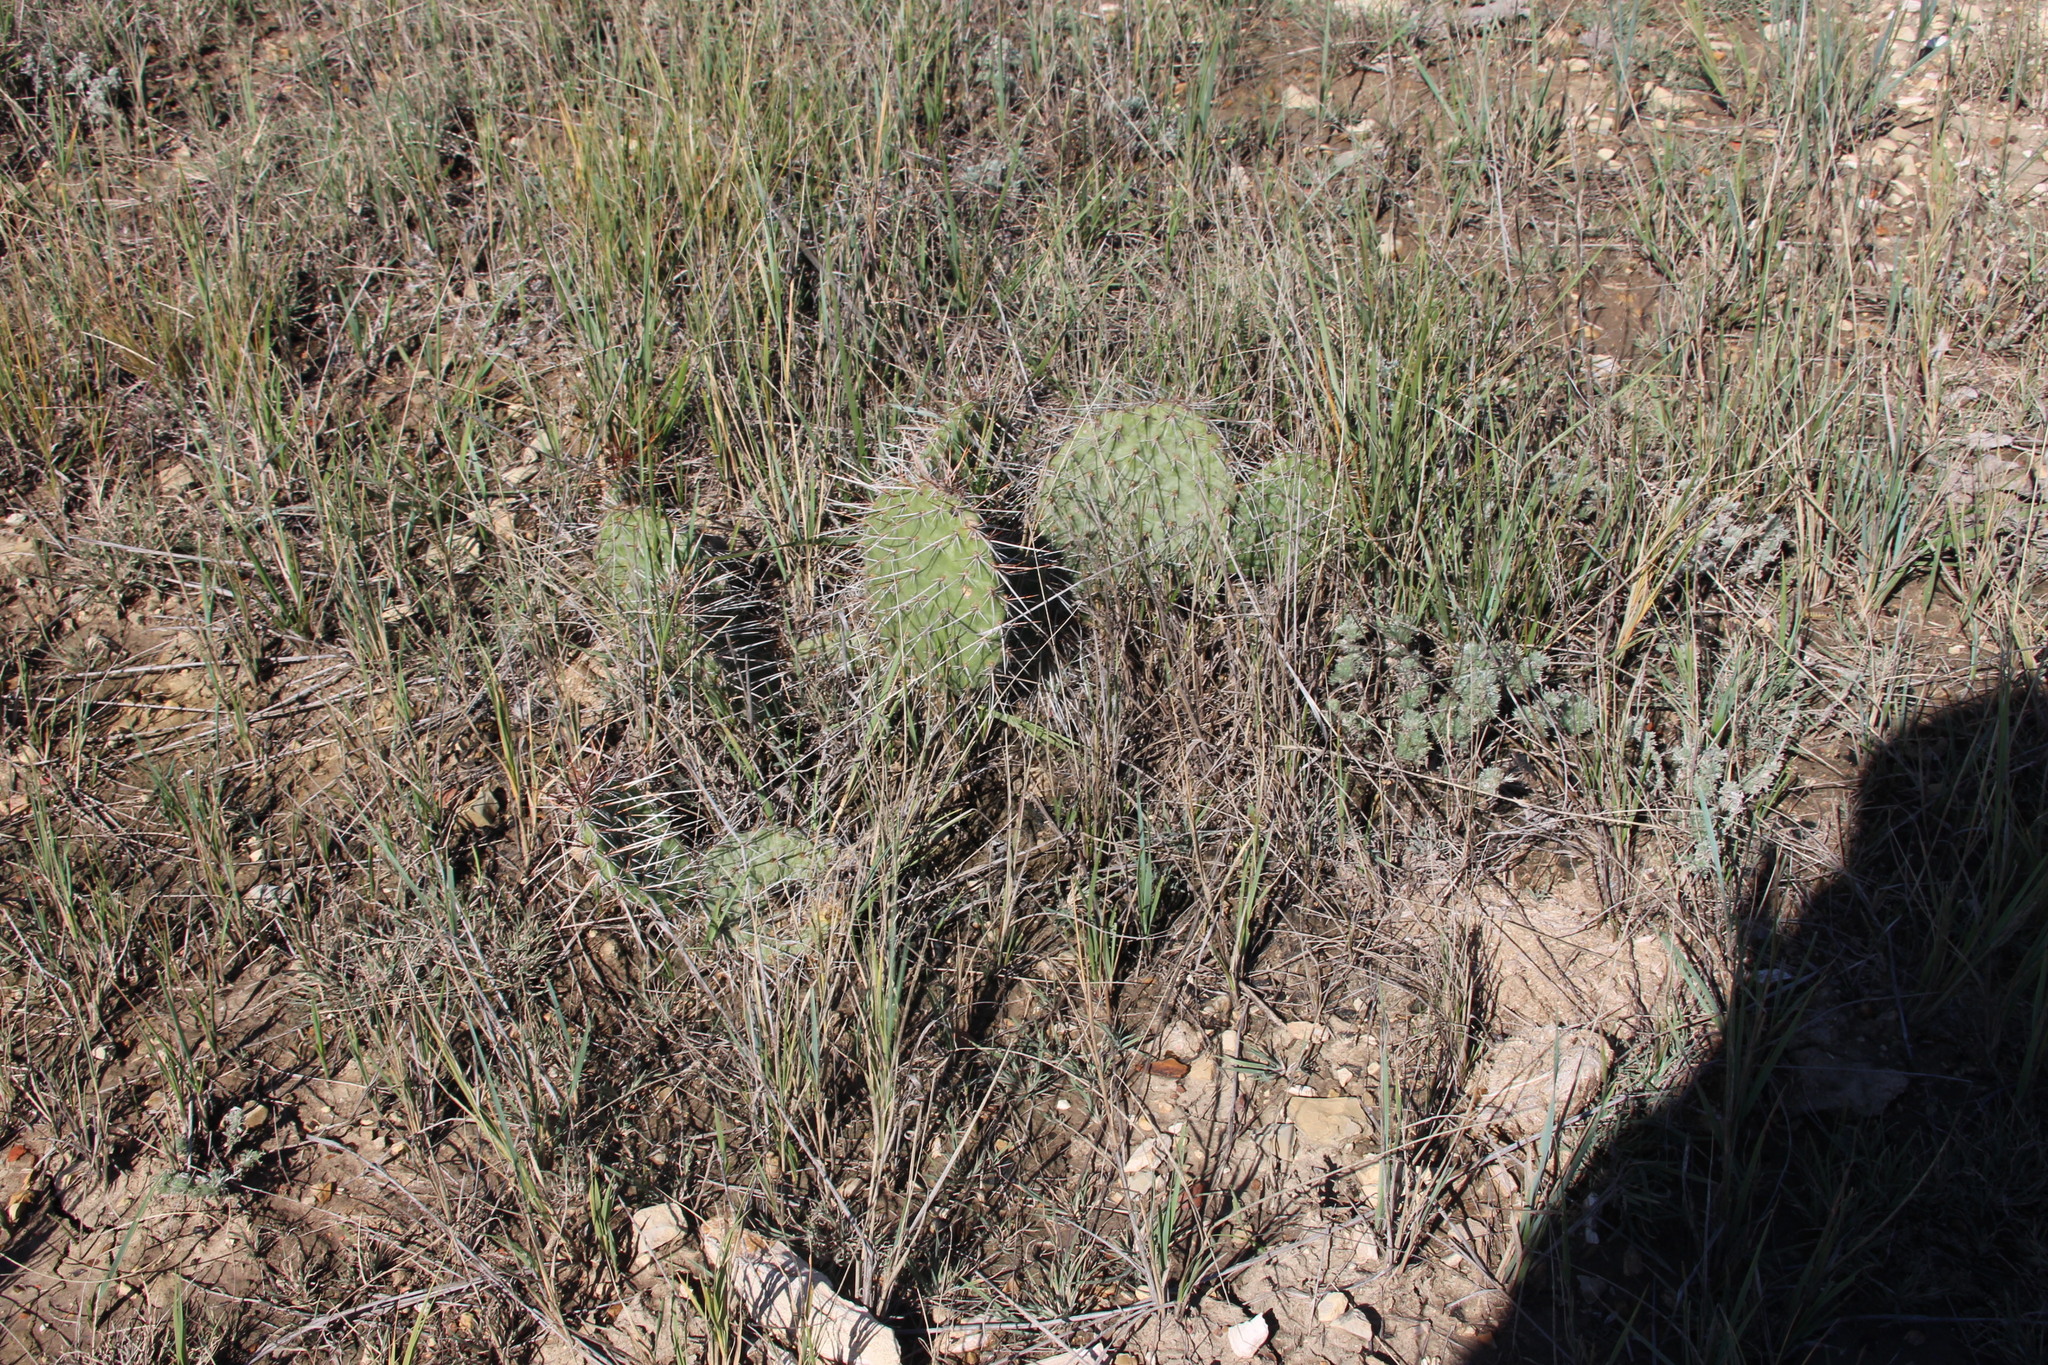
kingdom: Plantae
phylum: Tracheophyta
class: Magnoliopsida
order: Caryophyllales
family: Cactaceae
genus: Opuntia
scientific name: Opuntia polyacantha
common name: Plains prickly-pear
